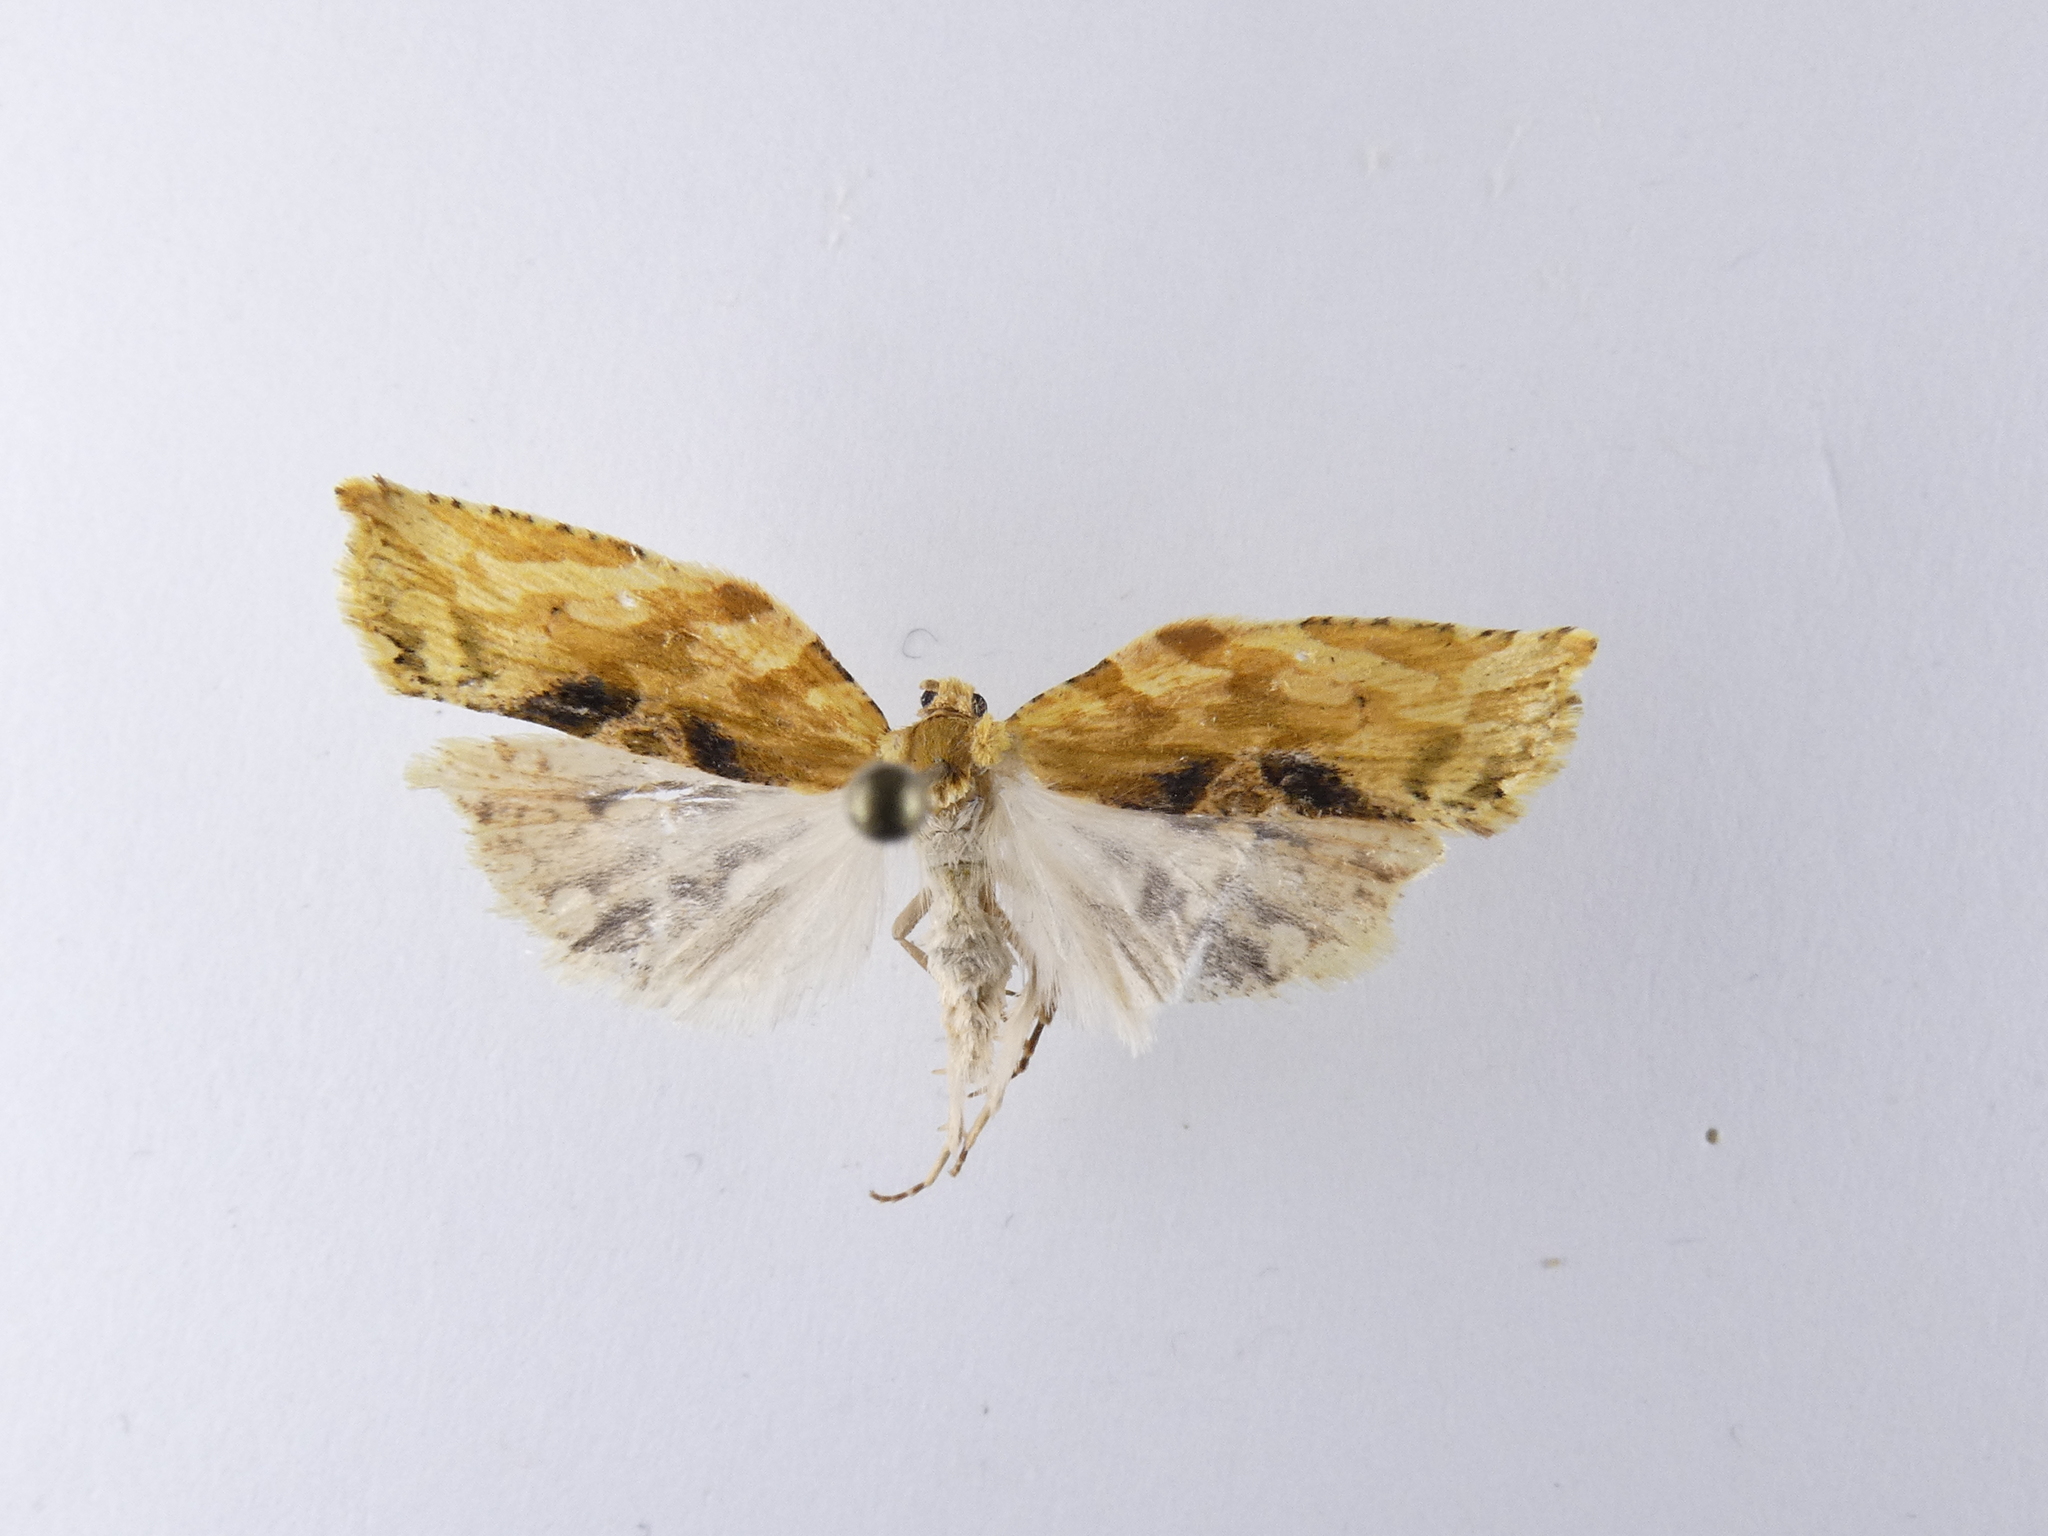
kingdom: Animalia
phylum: Arthropoda
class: Insecta
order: Lepidoptera
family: Tortricidae
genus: Epalxiphora
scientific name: Epalxiphora axenana
